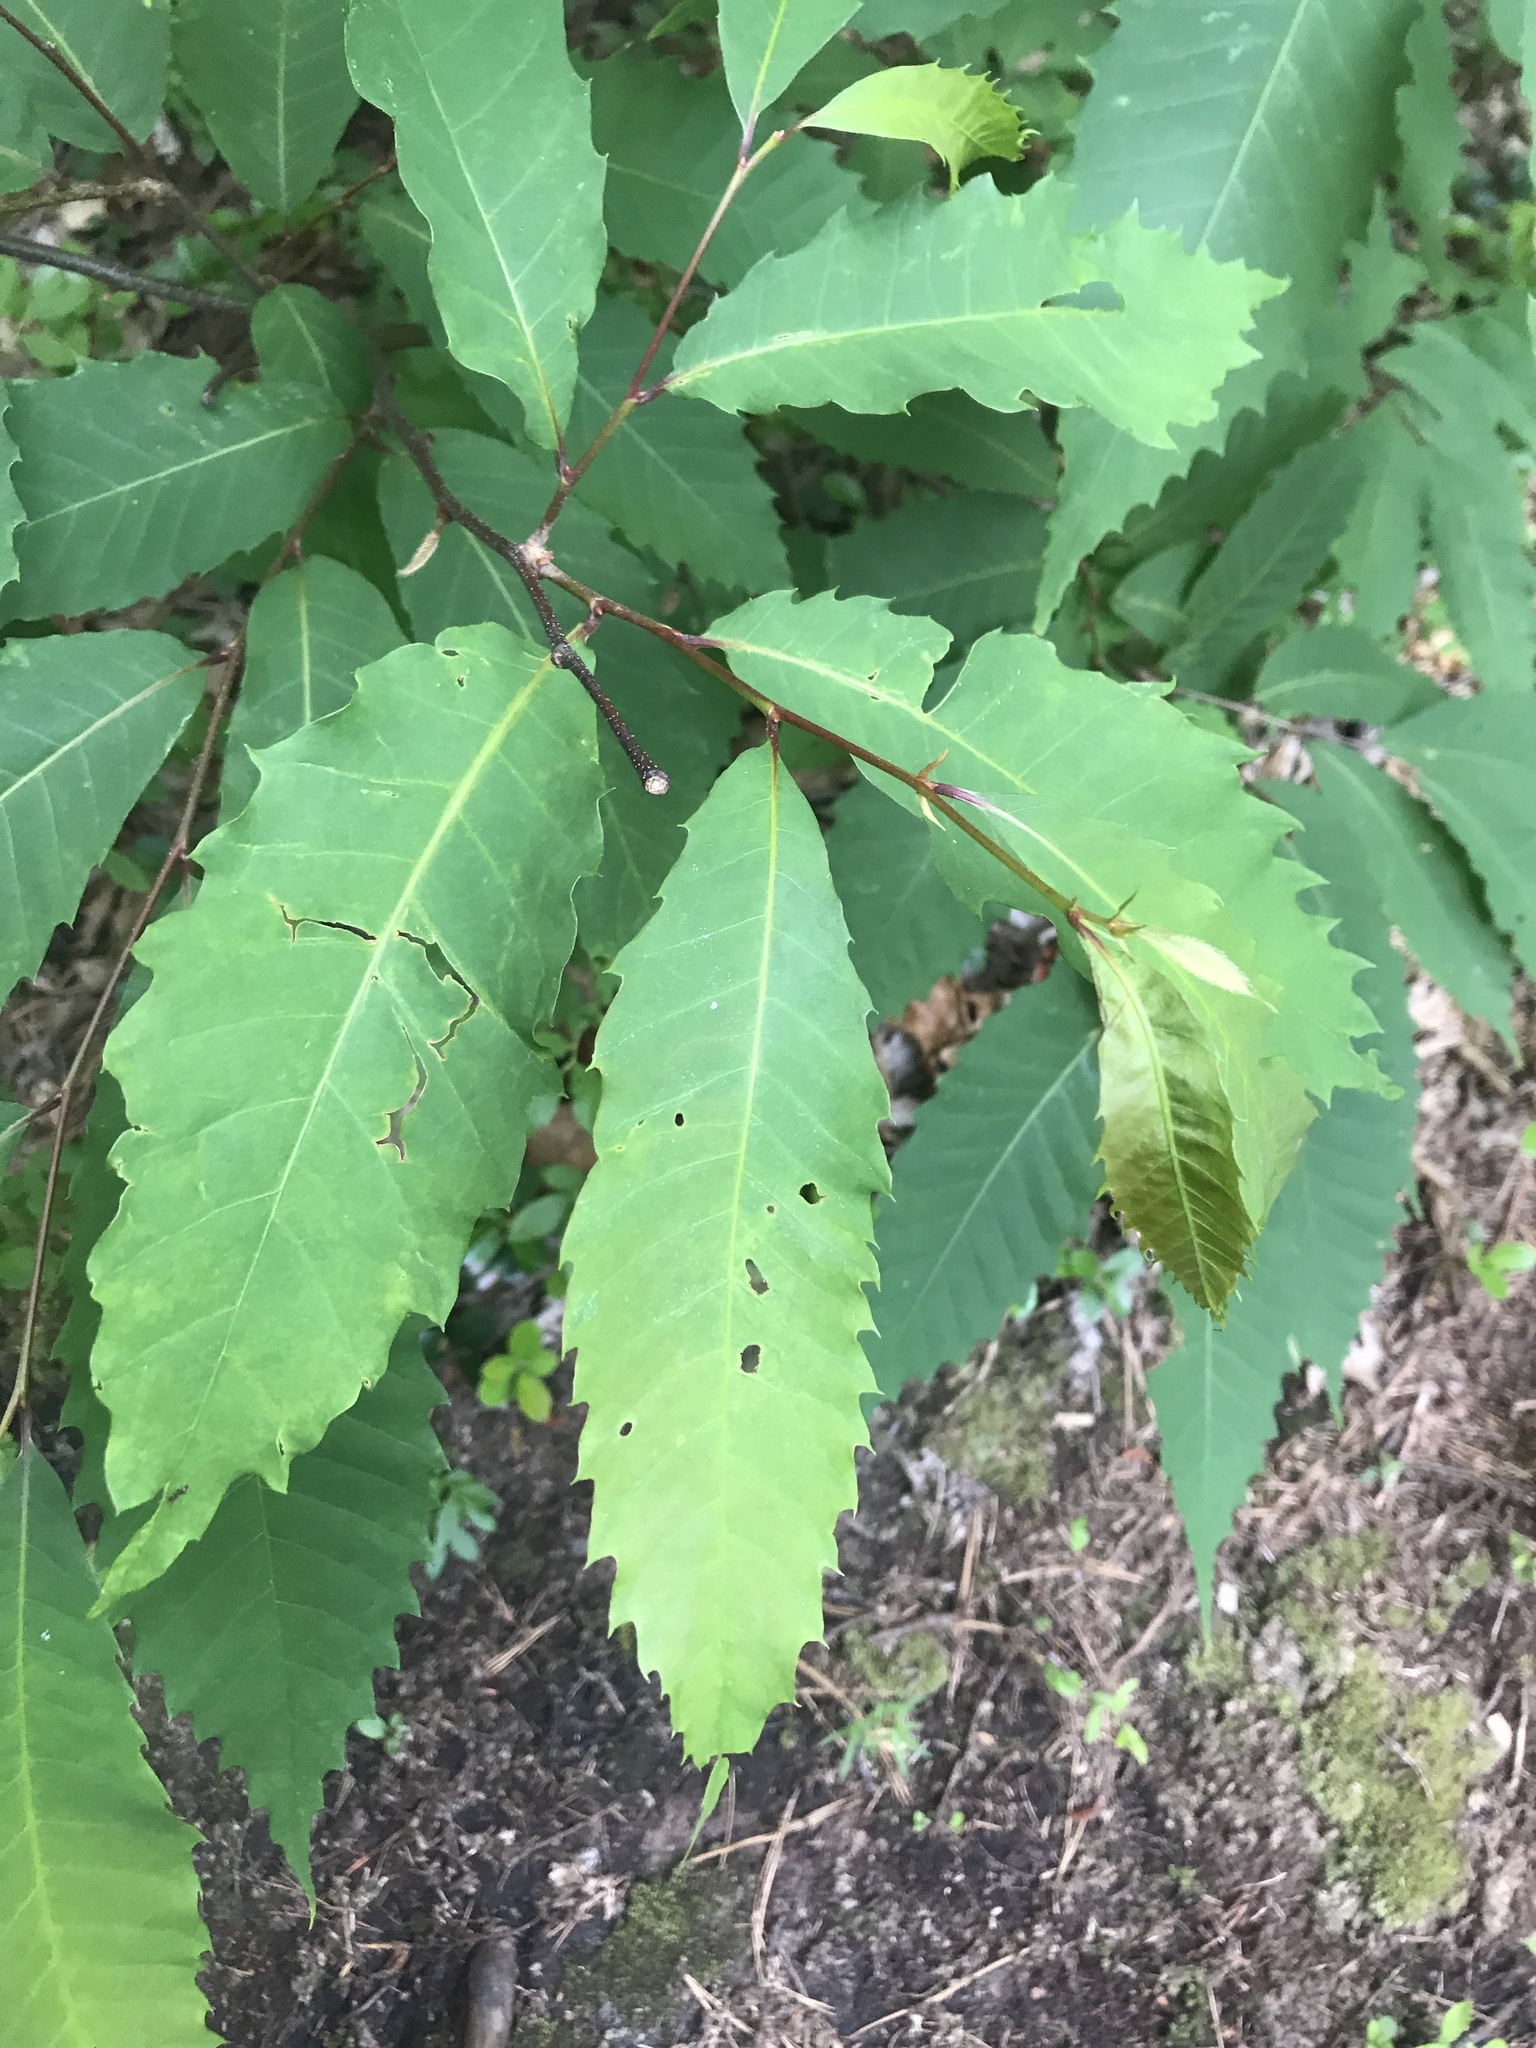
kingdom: Plantae
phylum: Tracheophyta
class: Magnoliopsida
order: Fagales
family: Fagaceae
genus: Castanea
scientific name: Castanea dentata
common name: American chestnut
